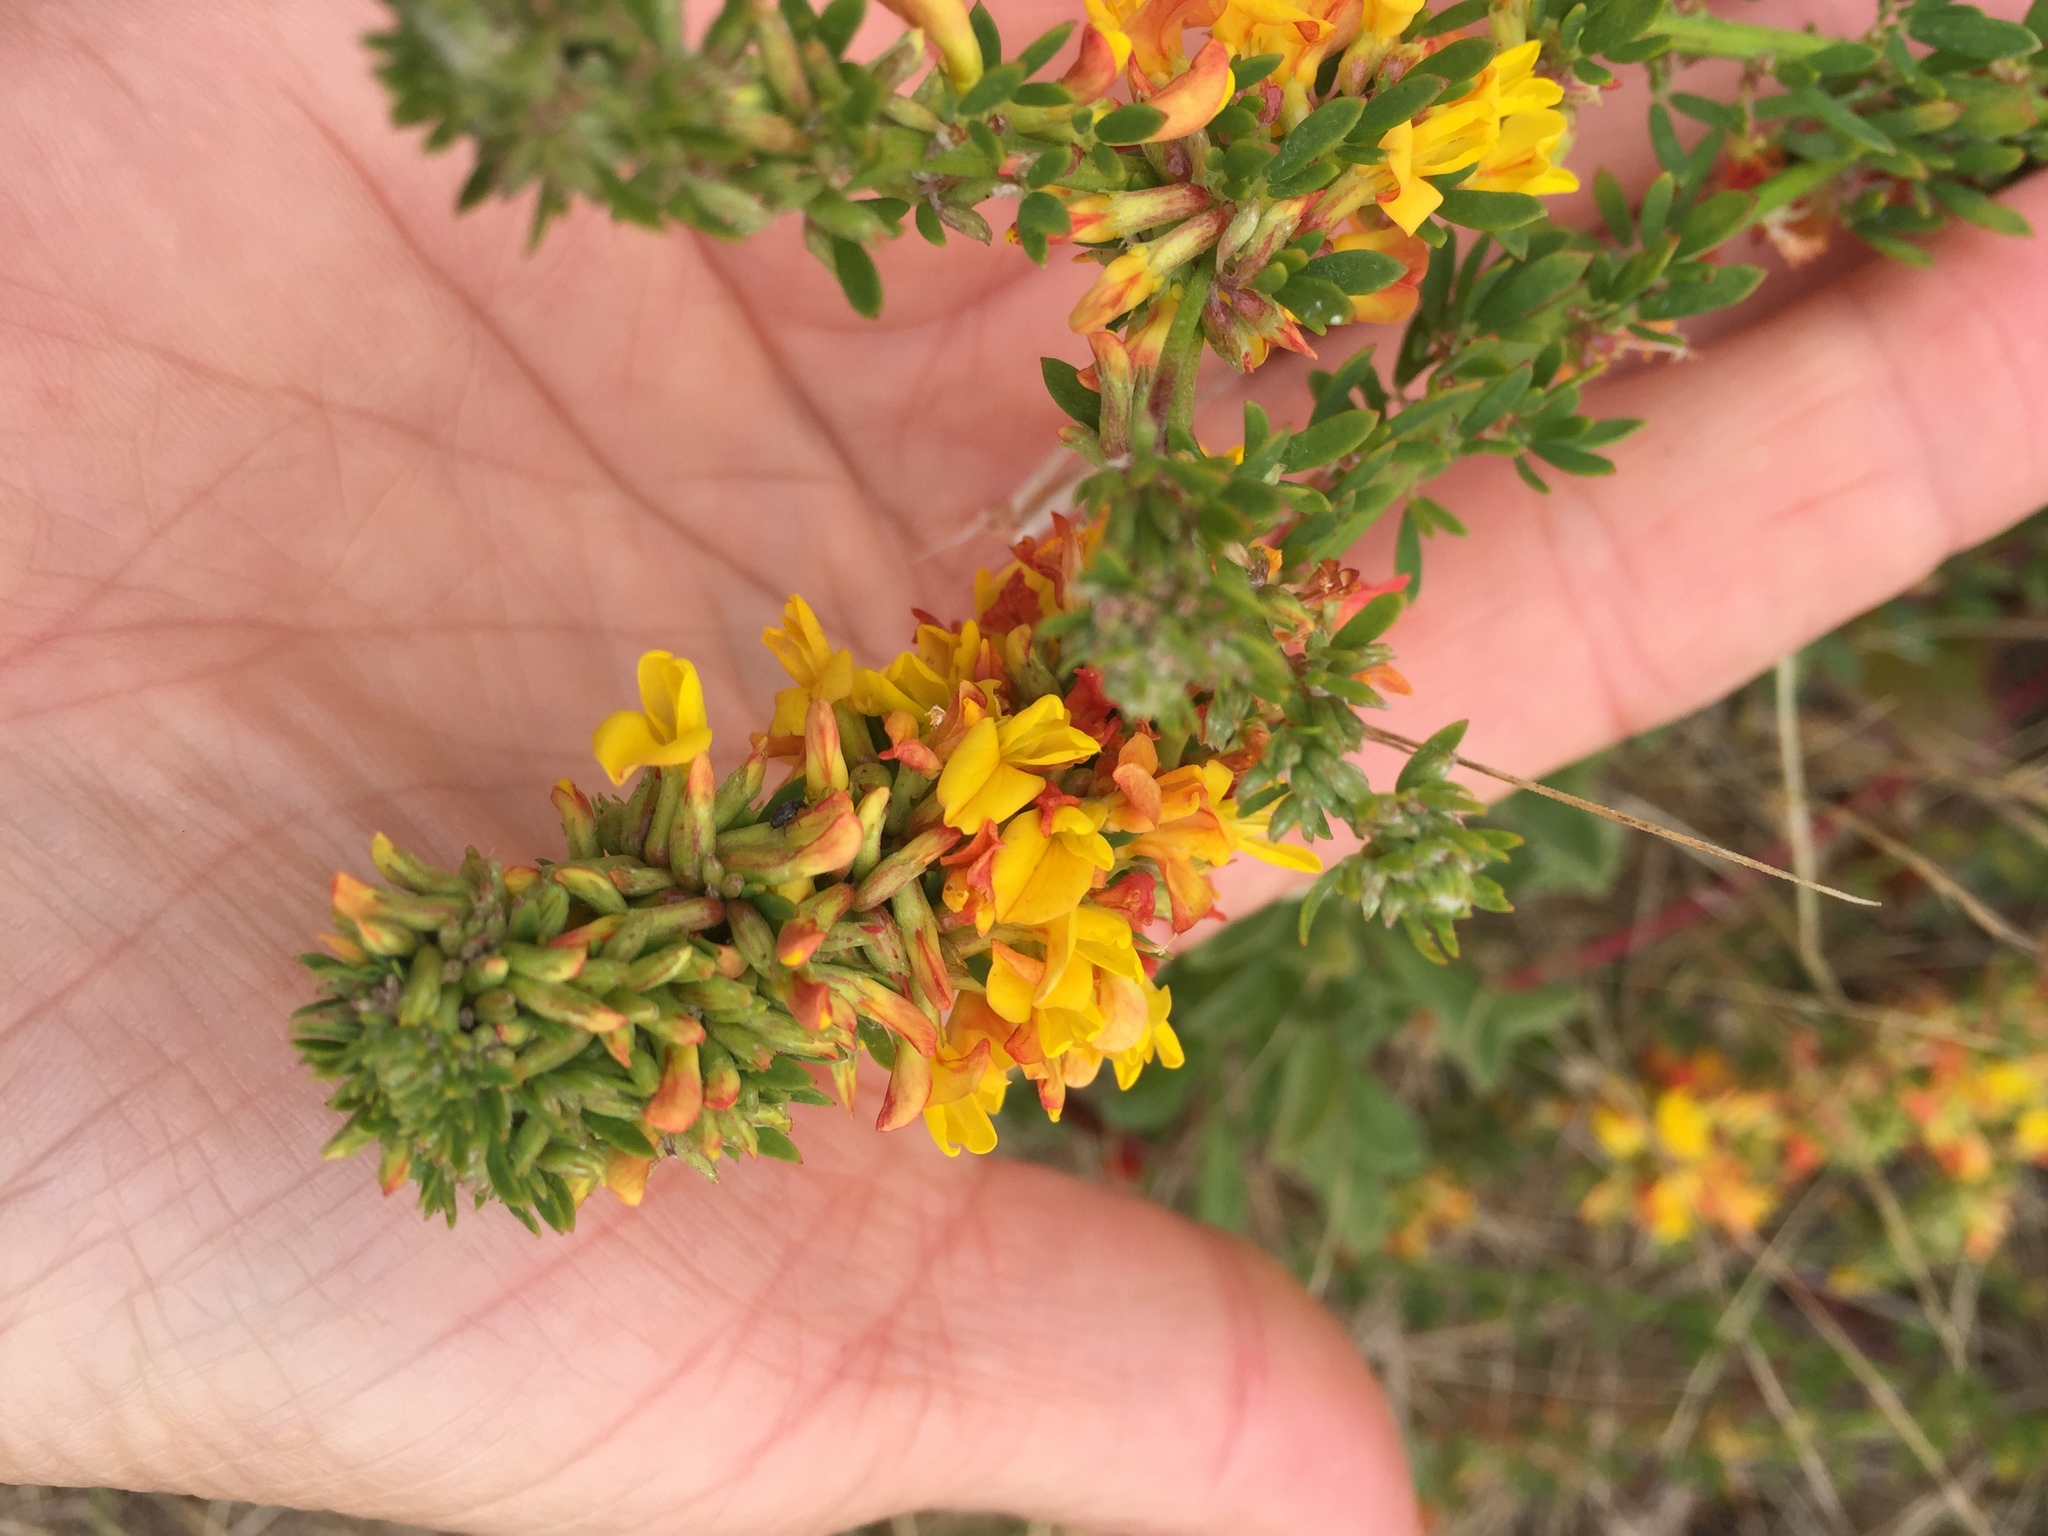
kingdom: Plantae
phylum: Tracheophyta
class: Magnoliopsida
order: Fabales
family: Fabaceae
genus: Acmispon
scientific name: Acmispon glaber
